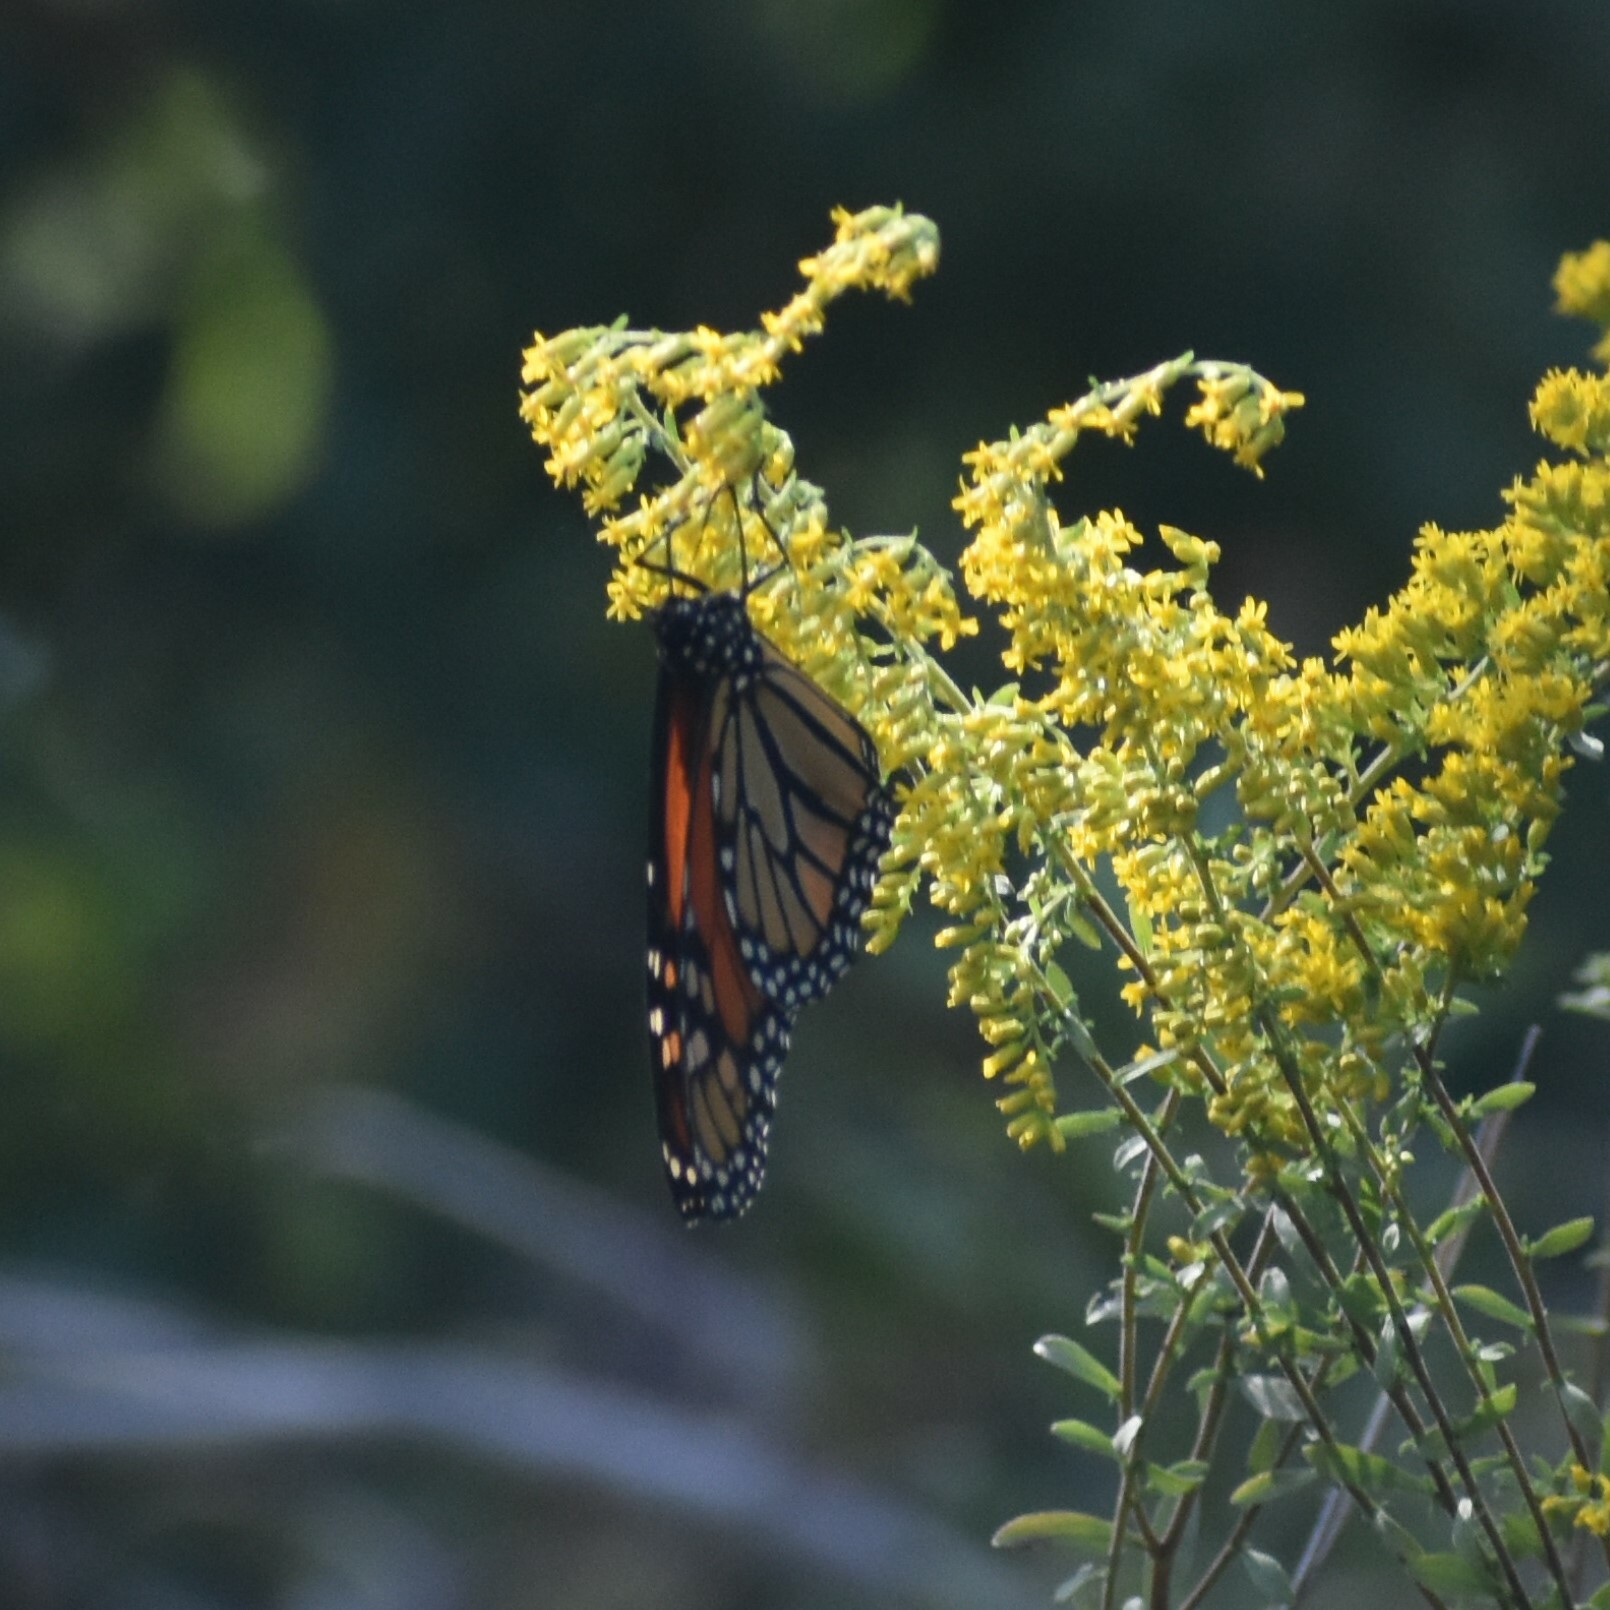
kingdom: Animalia
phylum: Arthropoda
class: Insecta
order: Lepidoptera
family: Nymphalidae
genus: Danaus
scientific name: Danaus plexippus
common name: Monarch
